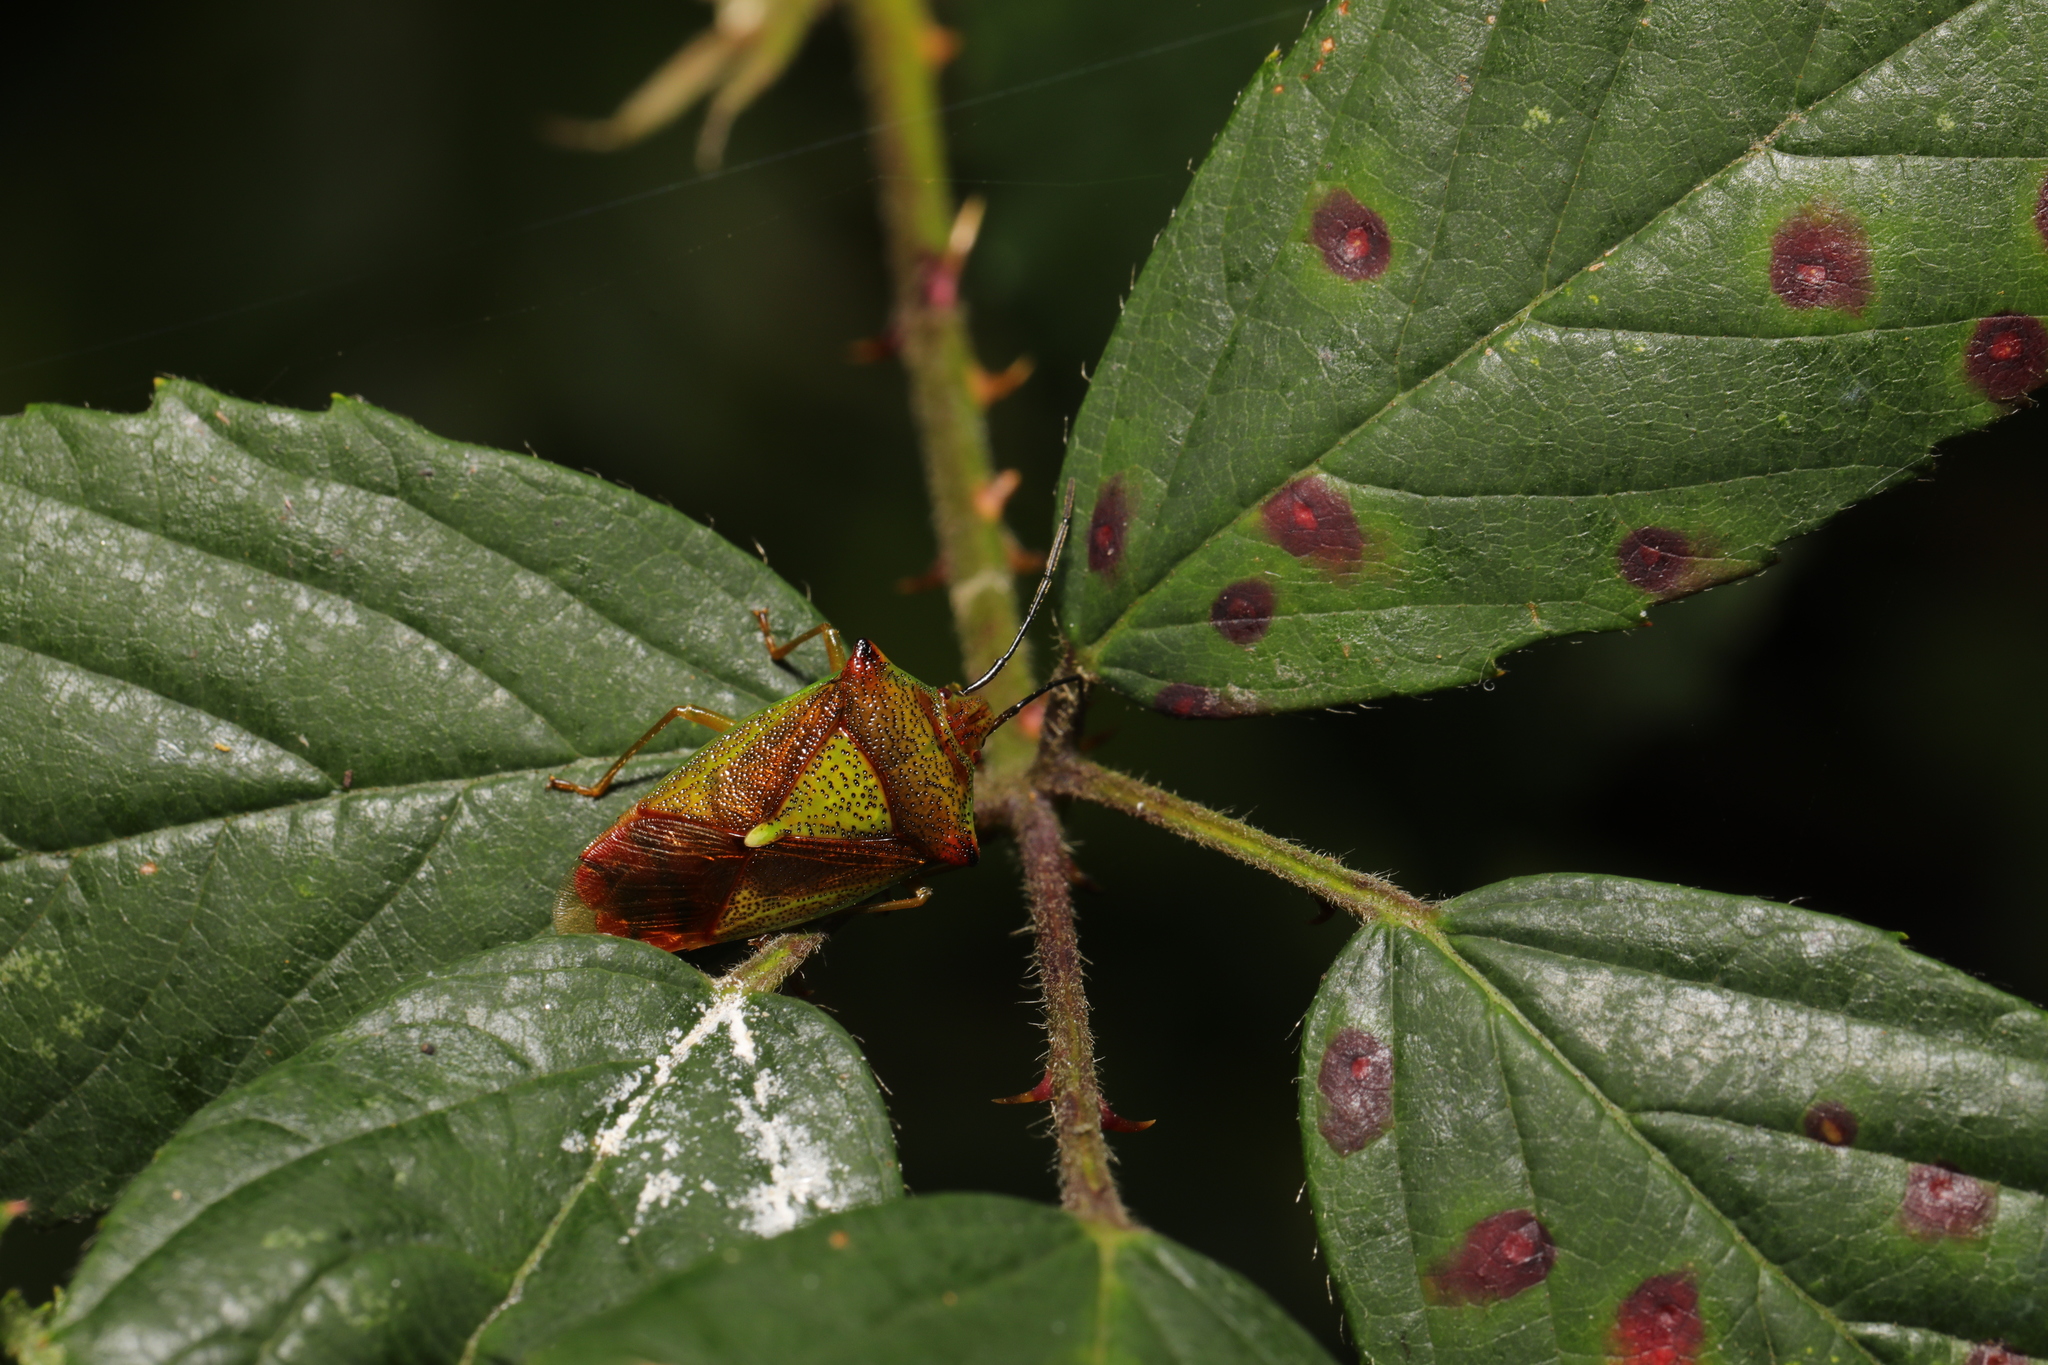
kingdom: Animalia
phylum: Arthropoda
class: Insecta
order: Hemiptera
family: Acanthosomatidae
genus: Acanthosoma
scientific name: Acanthosoma haemorrhoidale
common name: Hawthorn shieldbug
